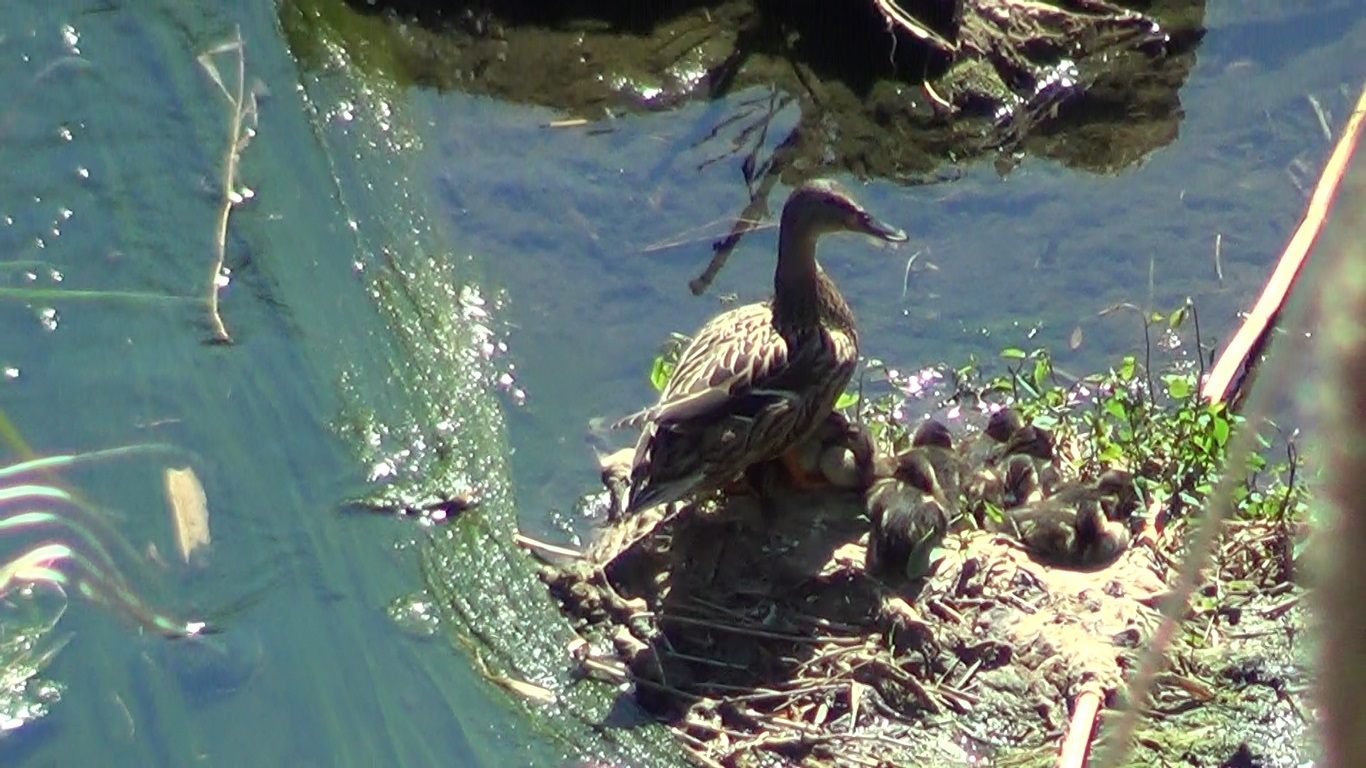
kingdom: Animalia
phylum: Chordata
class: Aves
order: Anseriformes
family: Anatidae
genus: Anas
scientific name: Anas platyrhynchos
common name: Mallard
